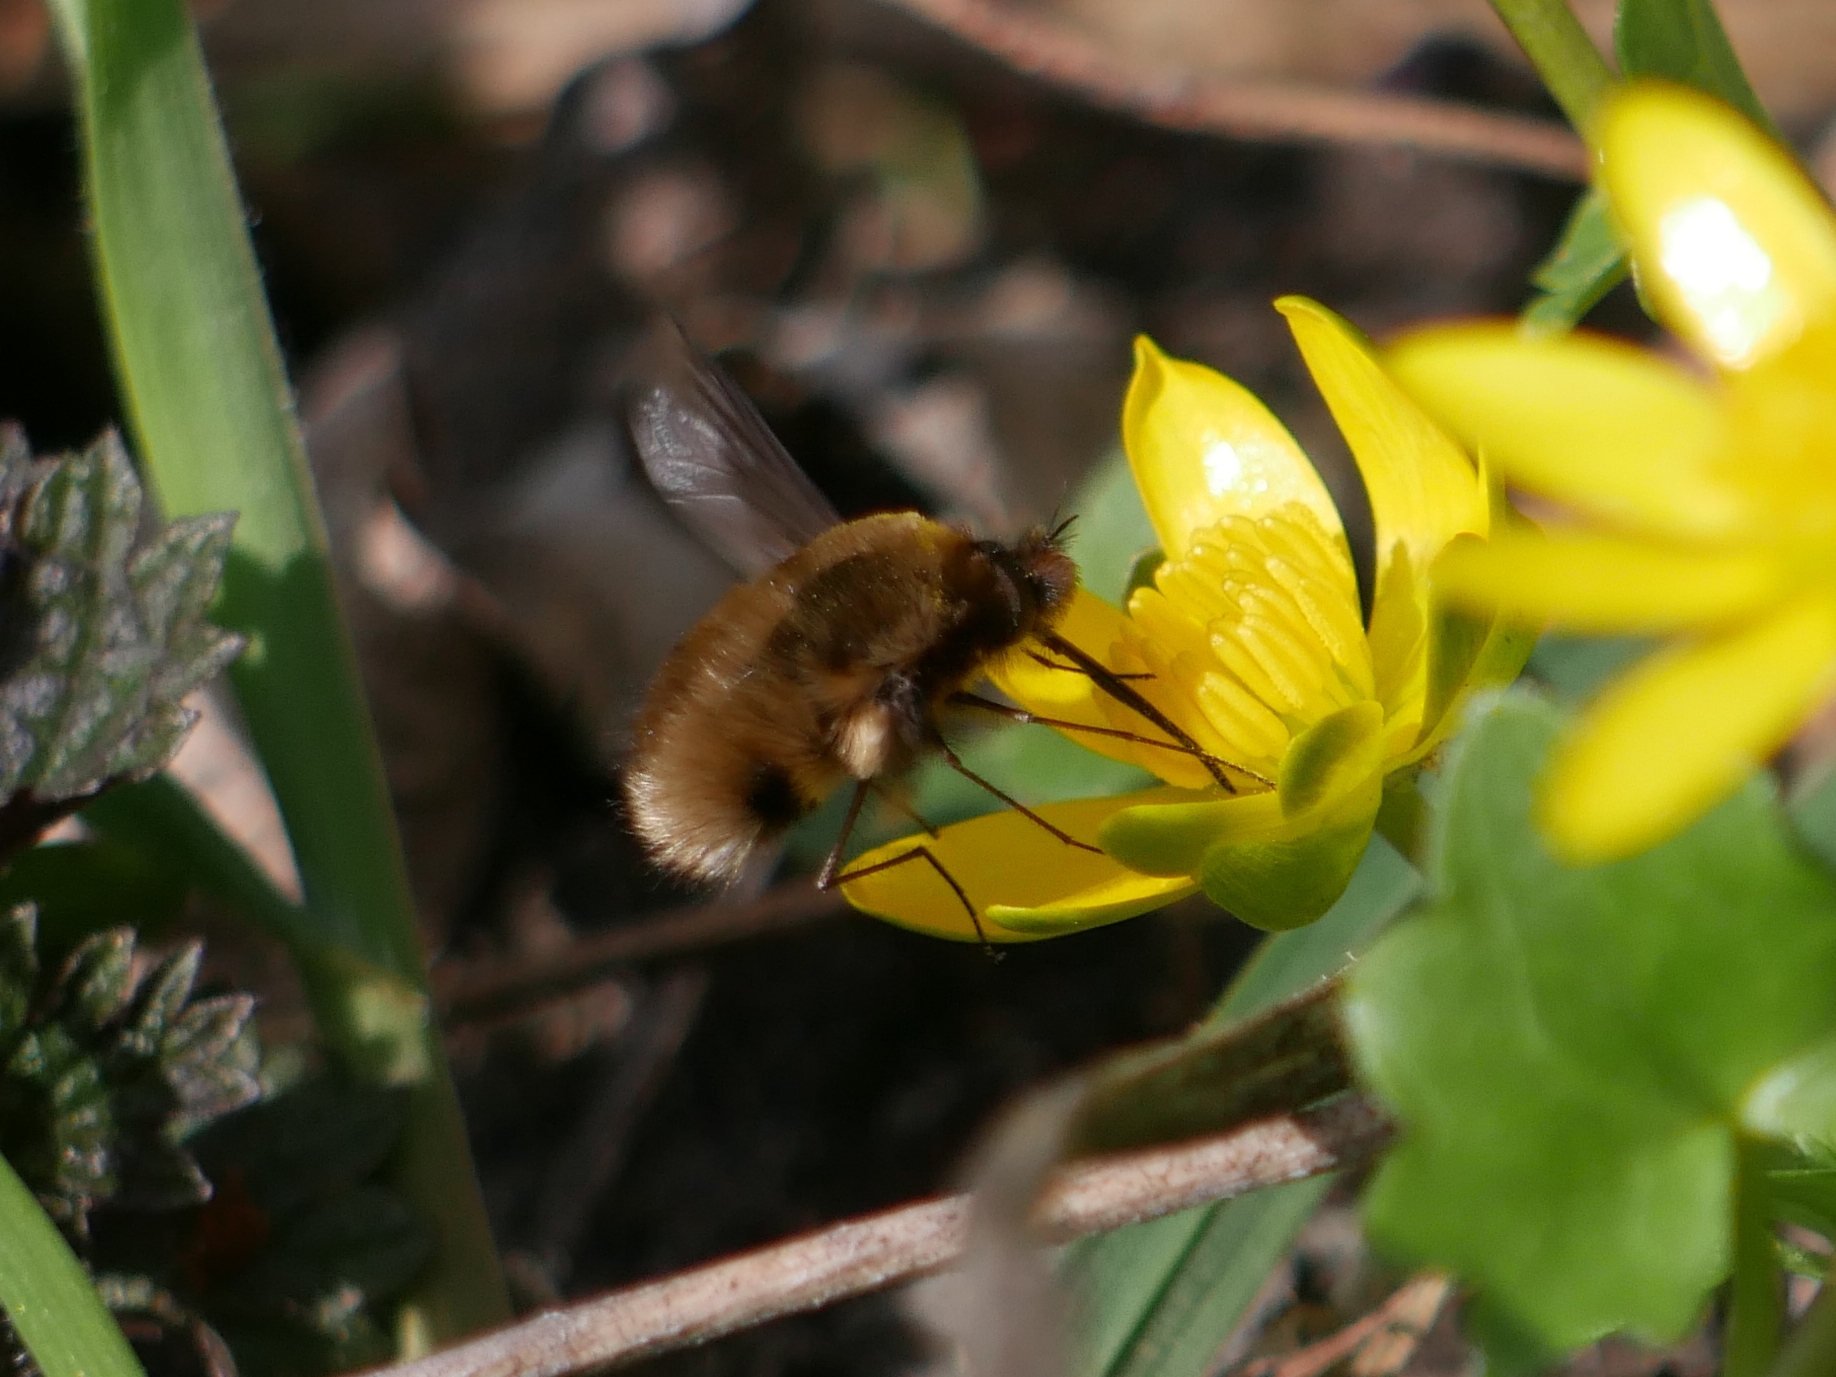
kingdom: Animalia
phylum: Arthropoda
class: Insecta
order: Diptera
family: Bombyliidae
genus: Bombylius
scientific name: Bombylius major
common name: Bee fly
